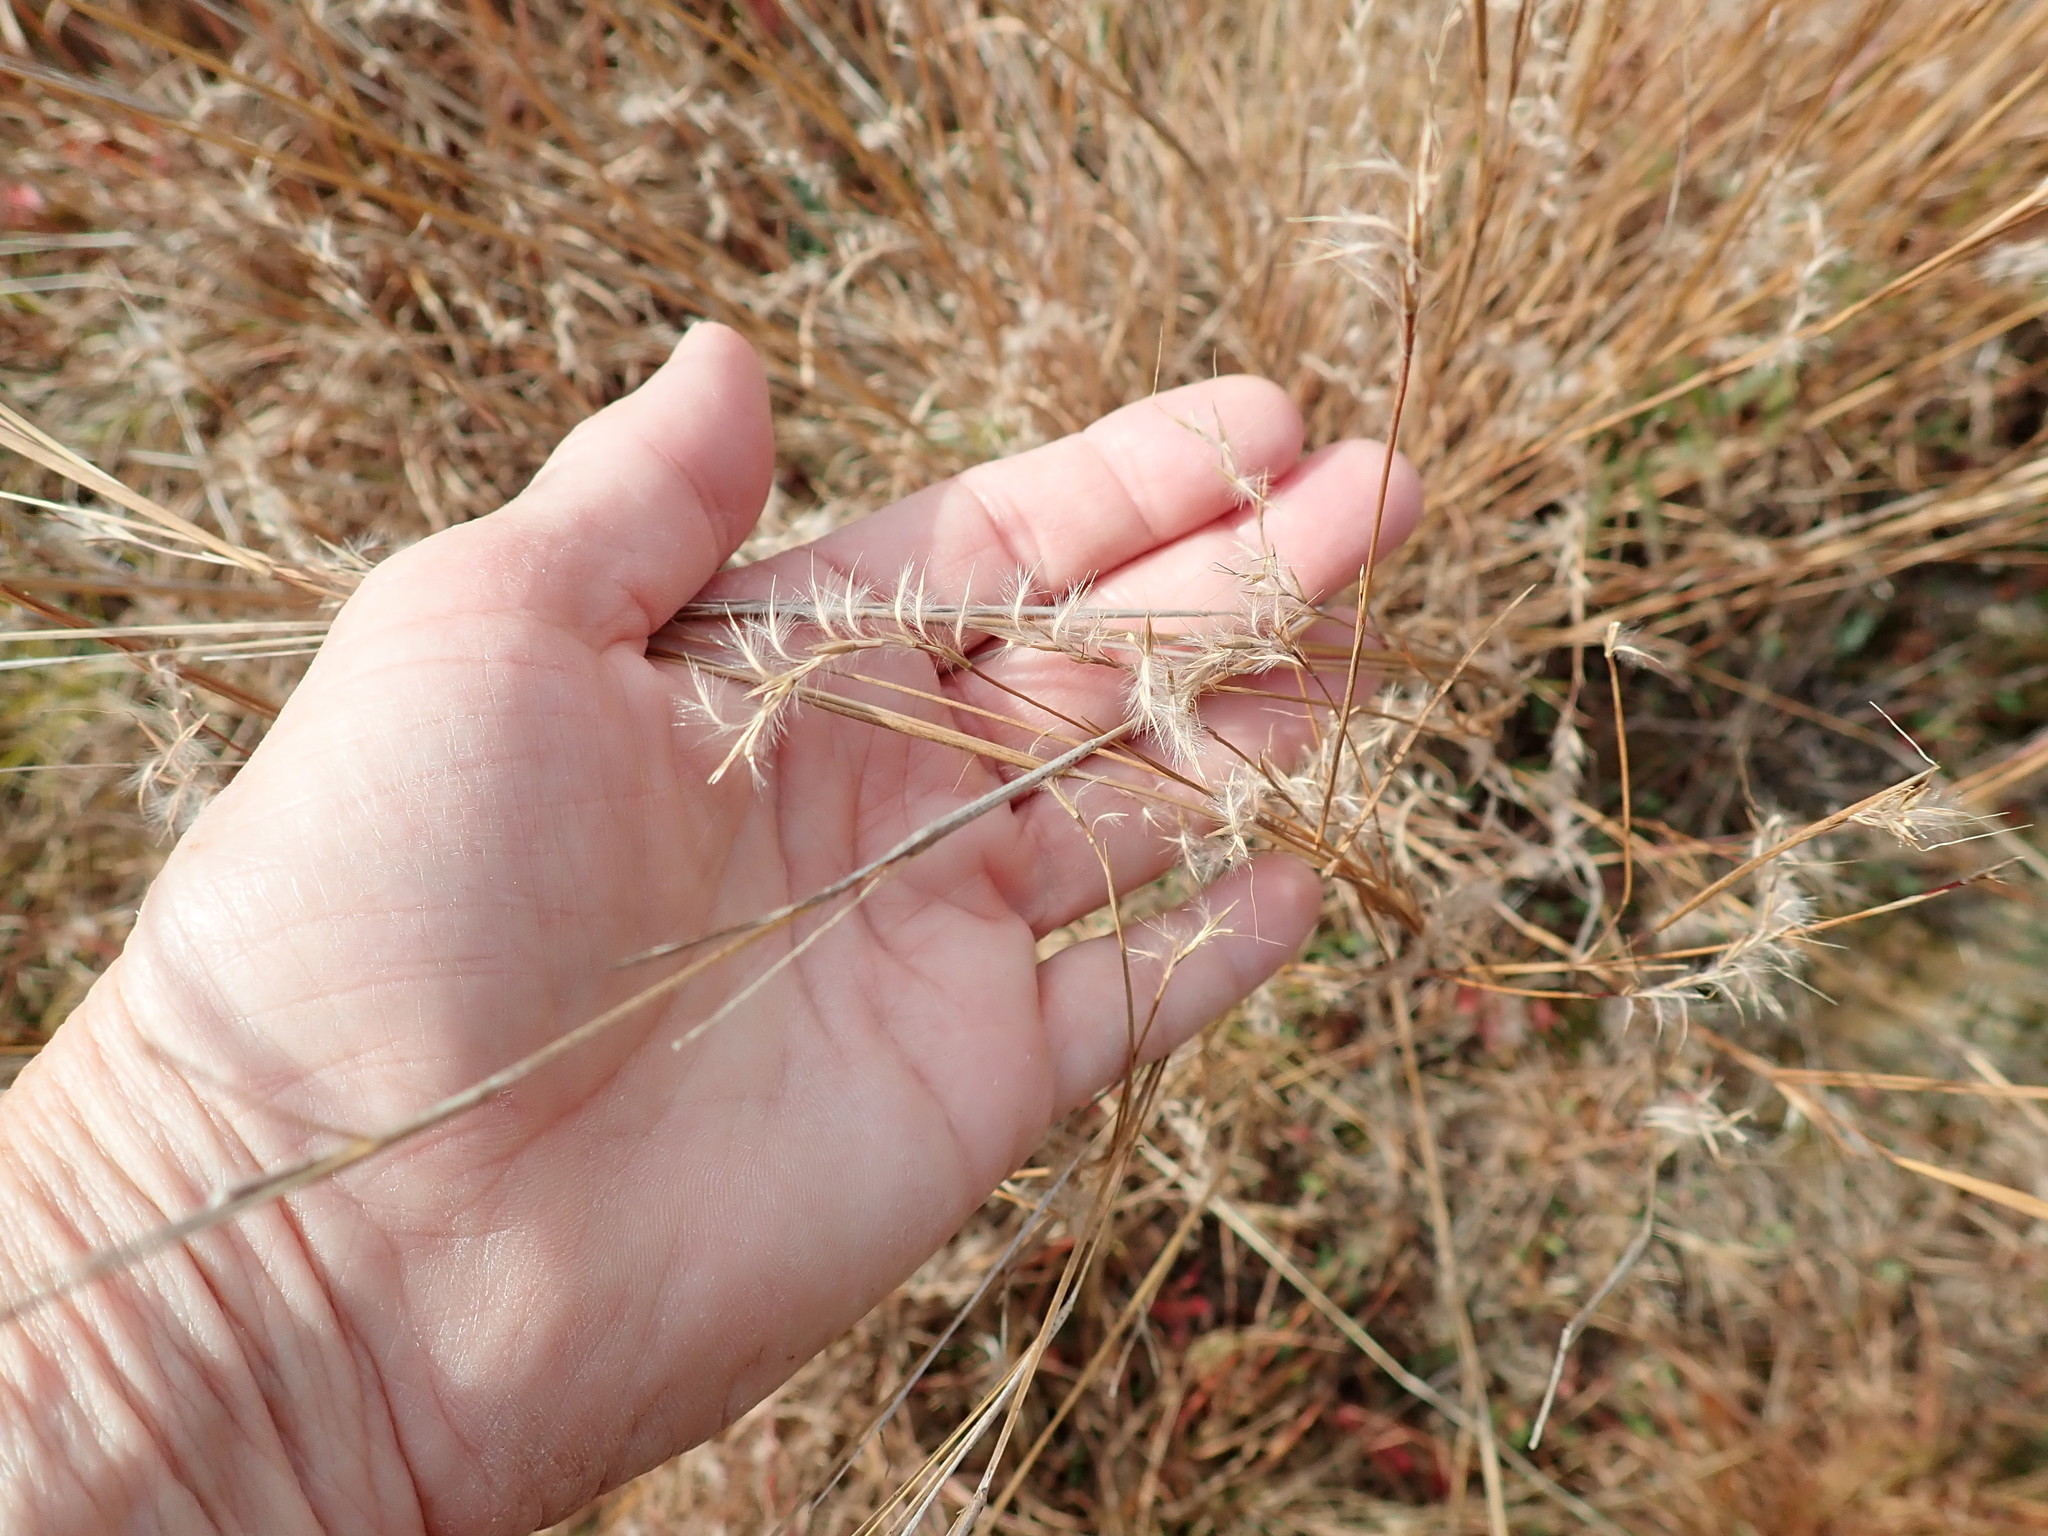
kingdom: Plantae
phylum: Tracheophyta
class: Liliopsida
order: Poales
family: Poaceae
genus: Schizachyrium
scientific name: Schizachyrium scoparium
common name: Little bluestem
